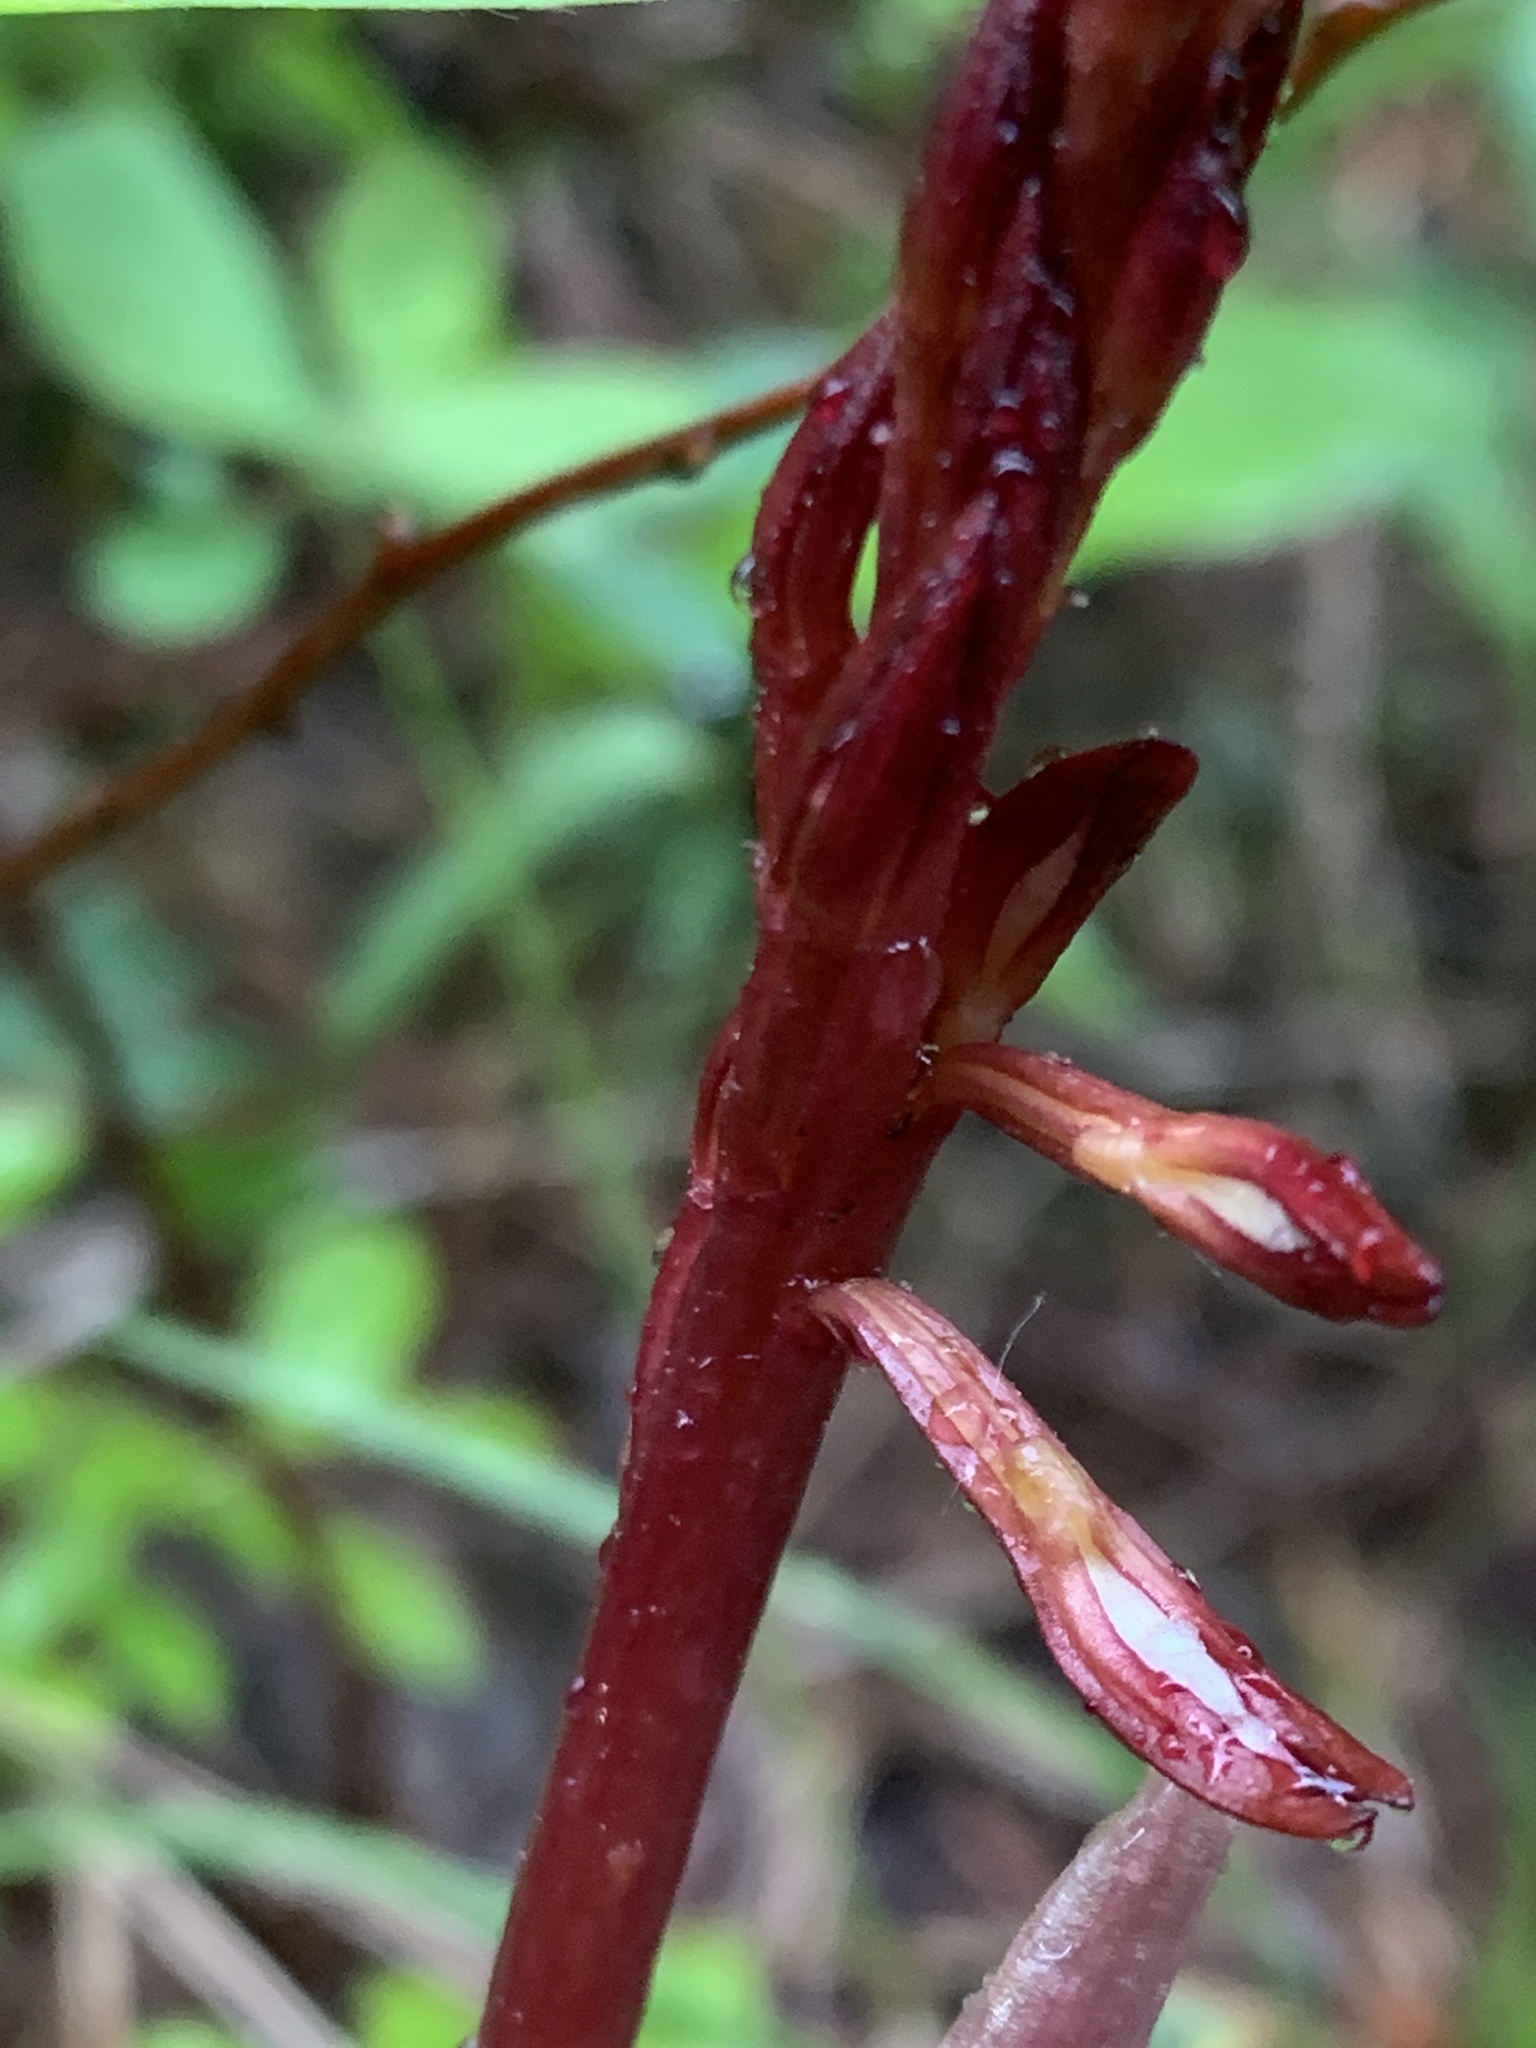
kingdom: Plantae
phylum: Tracheophyta
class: Liliopsida
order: Asparagales
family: Orchidaceae
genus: Corallorhiza
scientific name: Corallorhiza maculata
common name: Spotted coralroot
